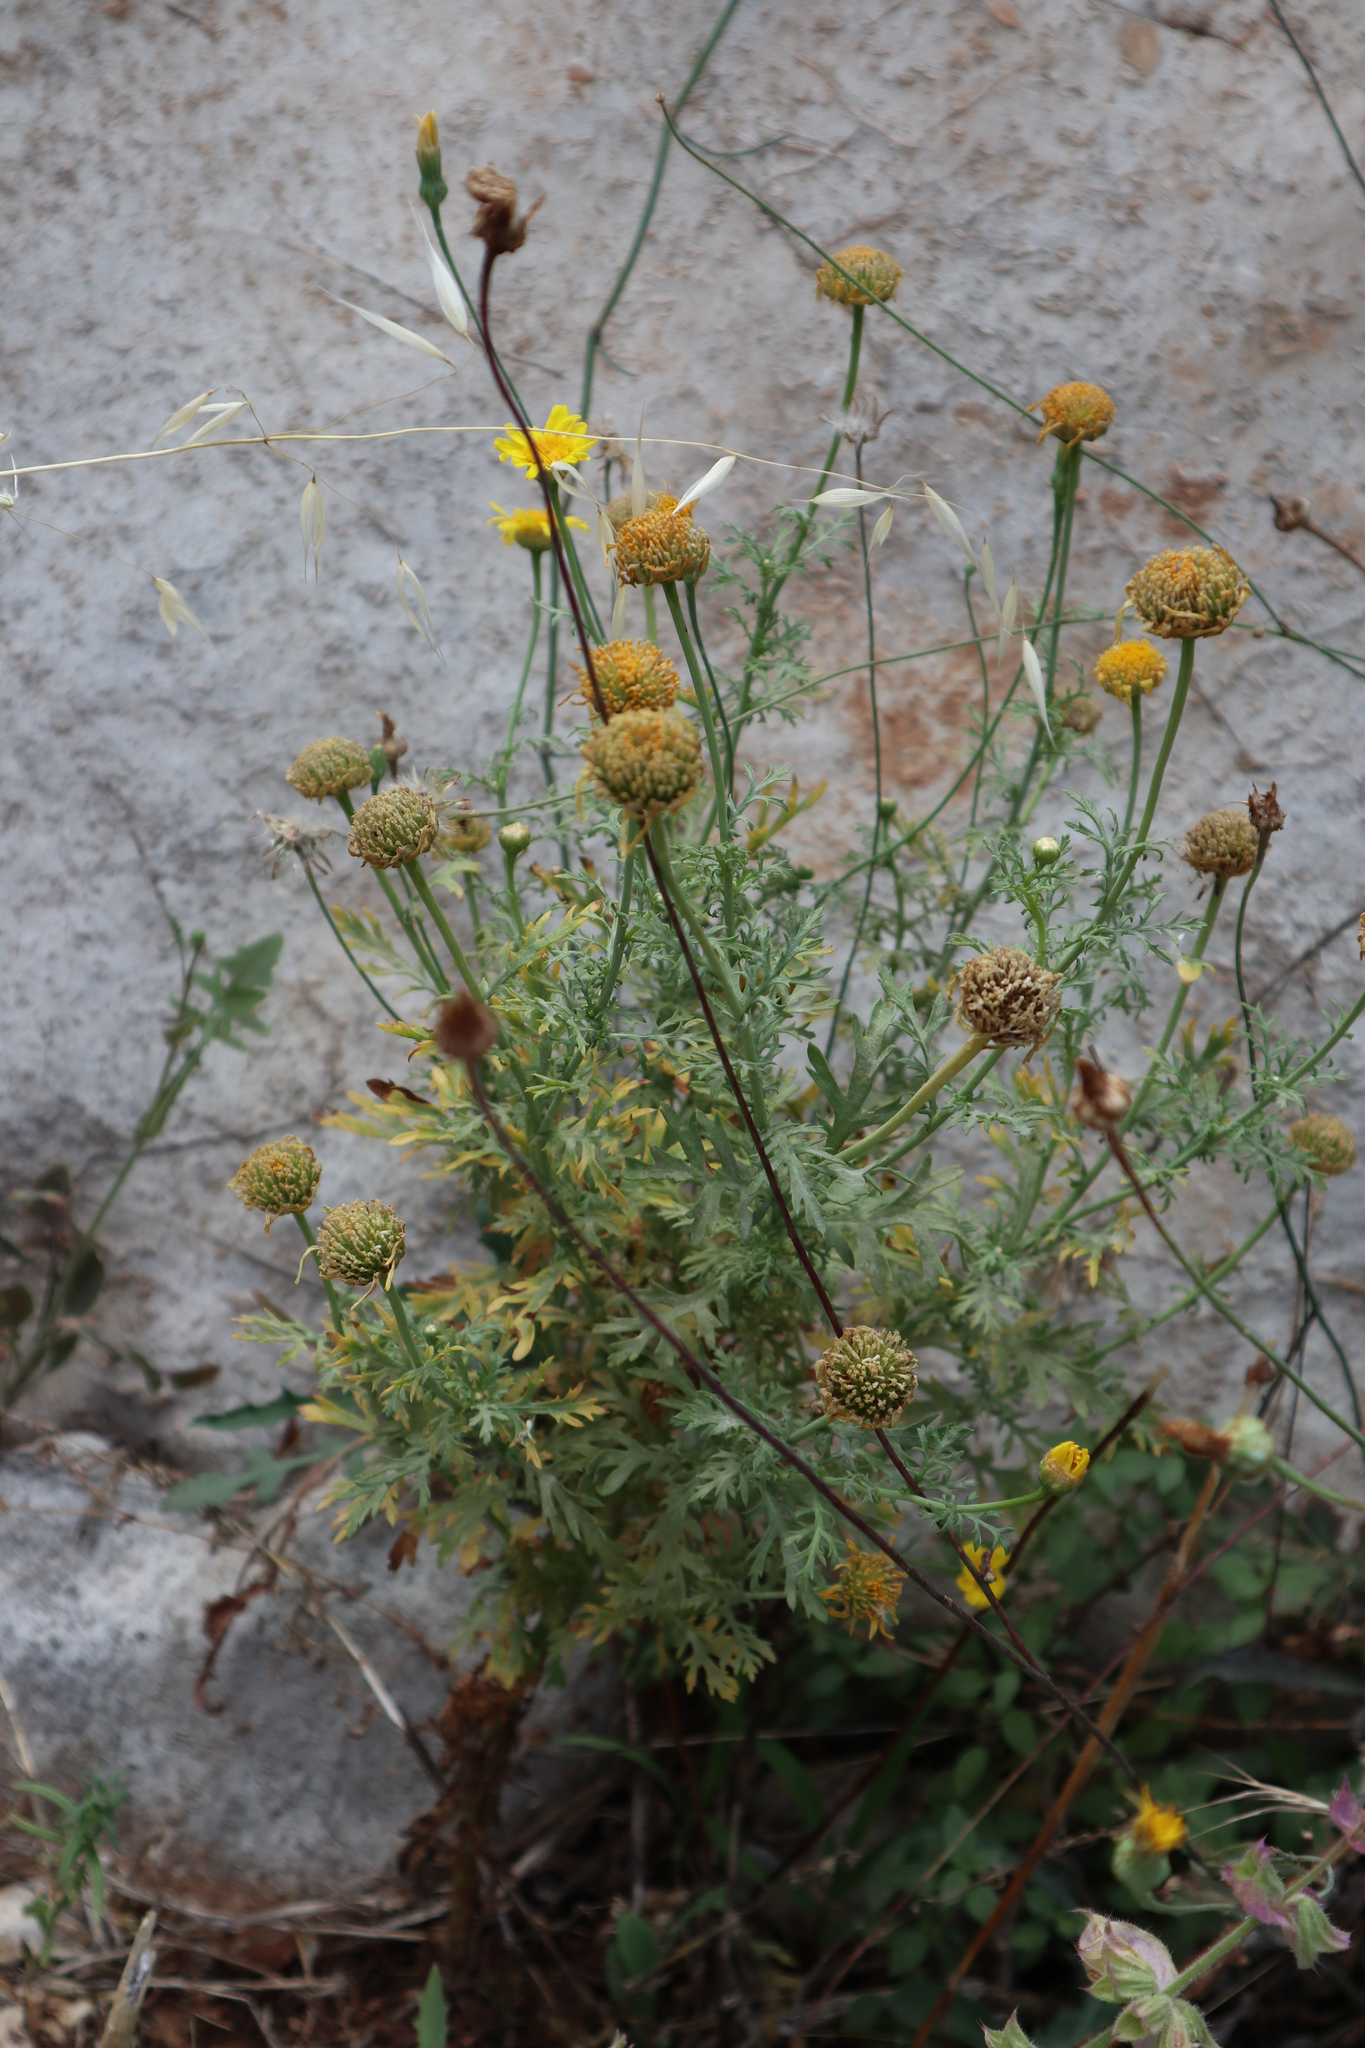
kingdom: Plantae
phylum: Tracheophyta
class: Magnoliopsida
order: Asterales
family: Asteraceae
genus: Glebionis
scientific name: Glebionis coronaria
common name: Crowndaisy
